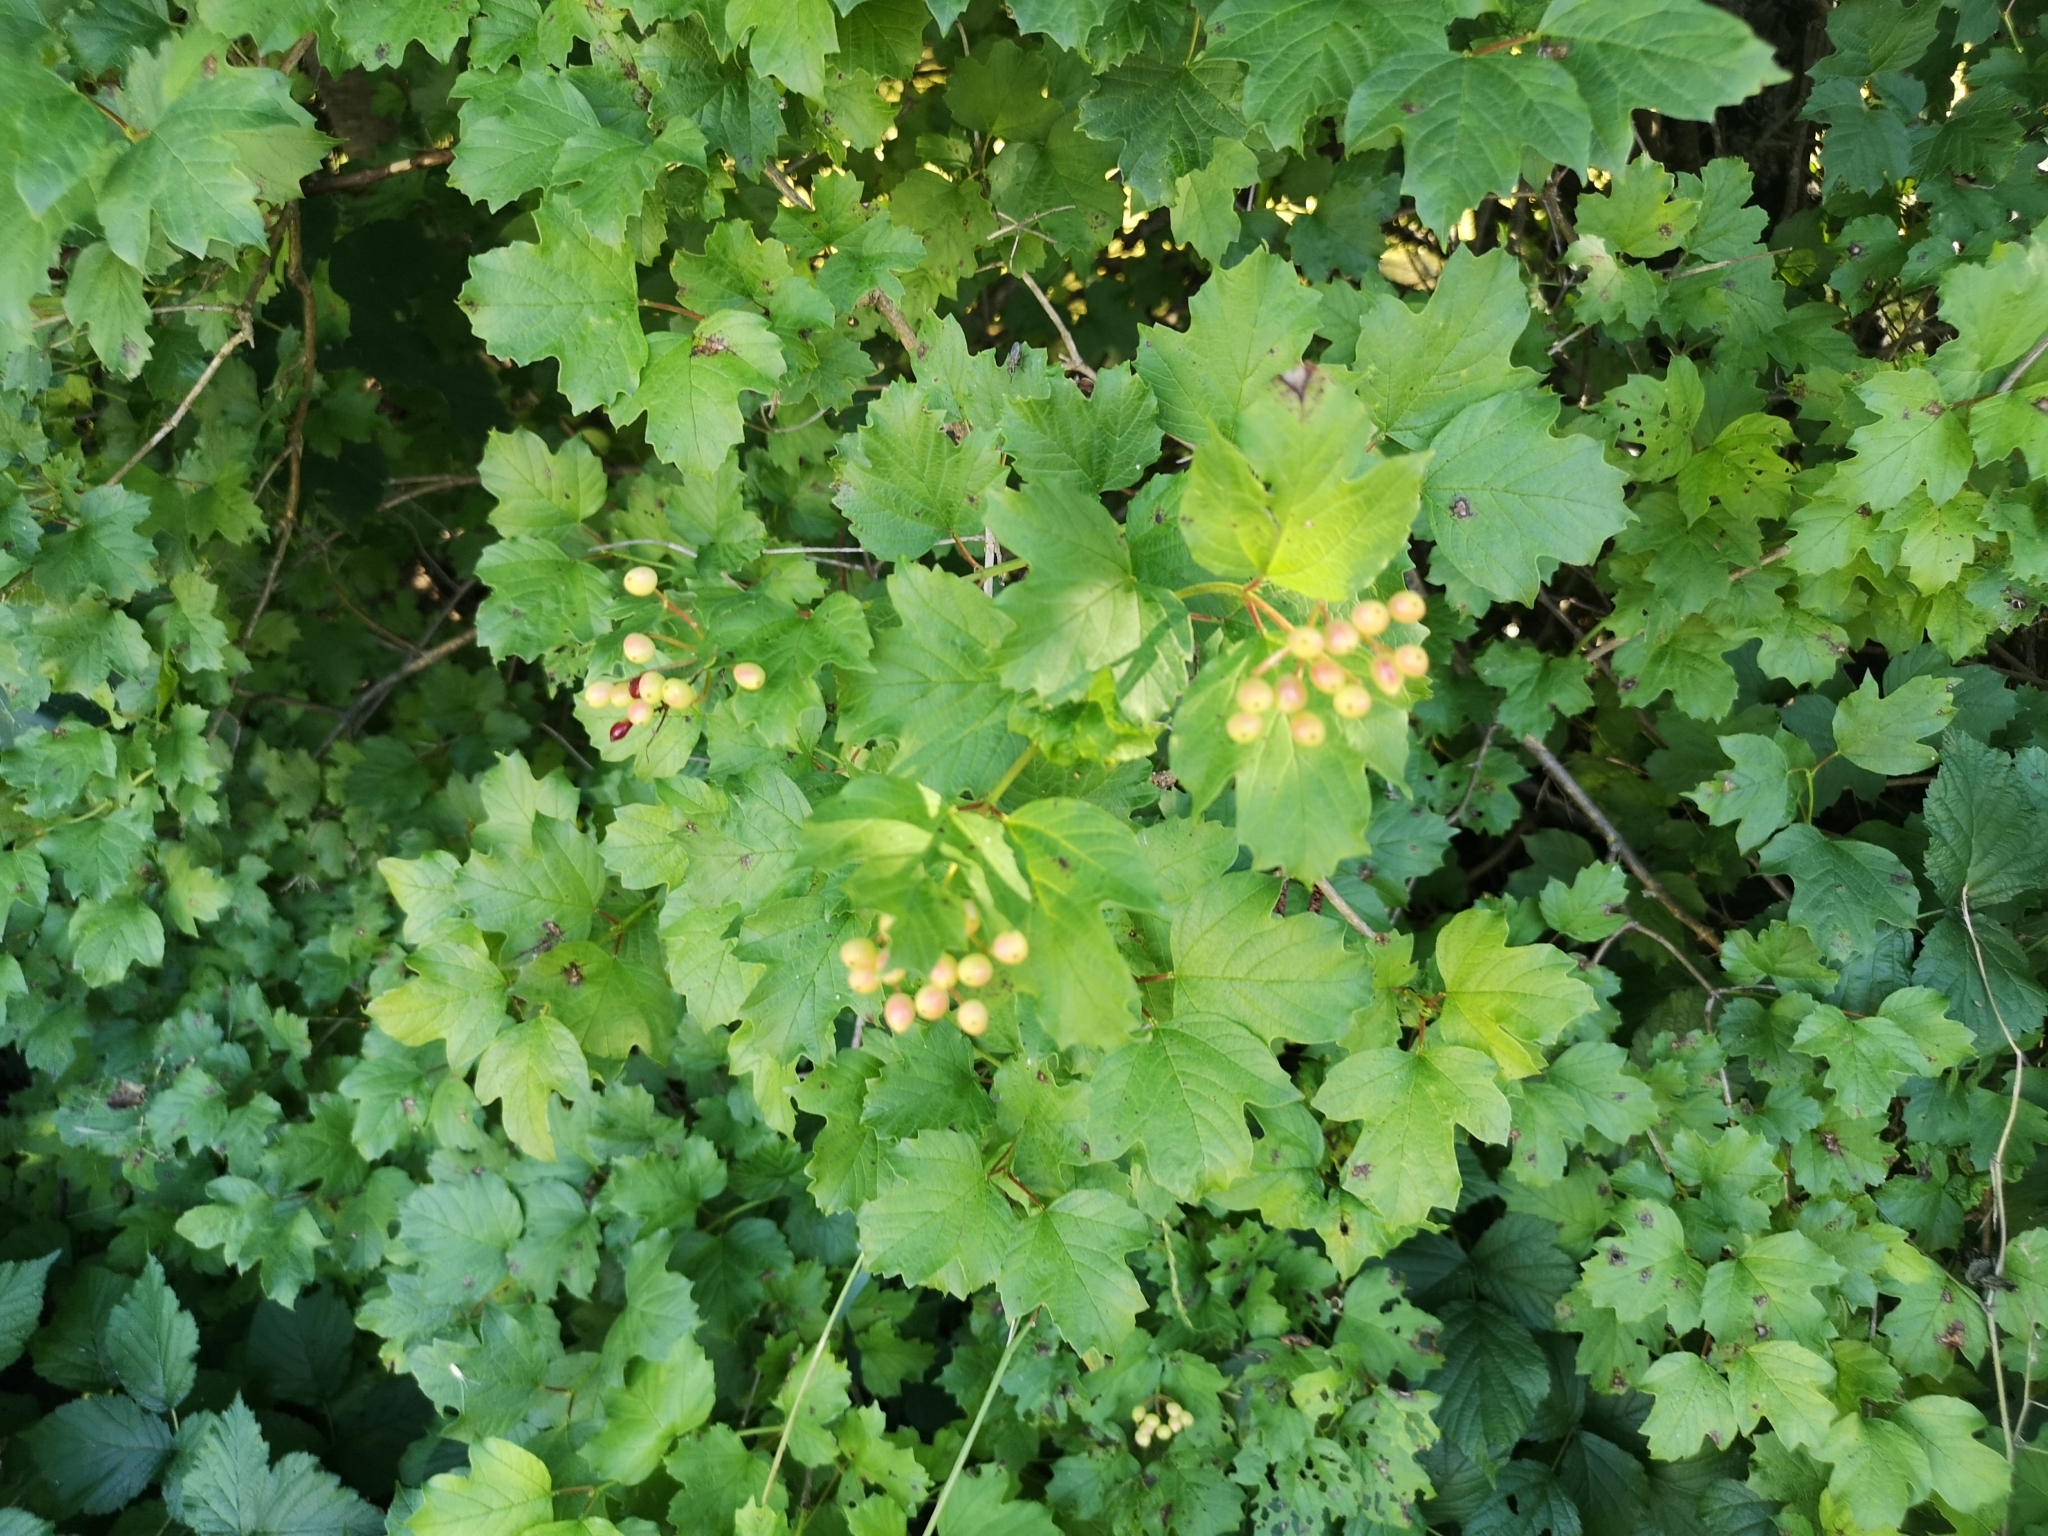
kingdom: Plantae
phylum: Tracheophyta
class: Magnoliopsida
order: Dipsacales
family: Viburnaceae
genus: Viburnum
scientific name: Viburnum opulus
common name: Guelder-rose
